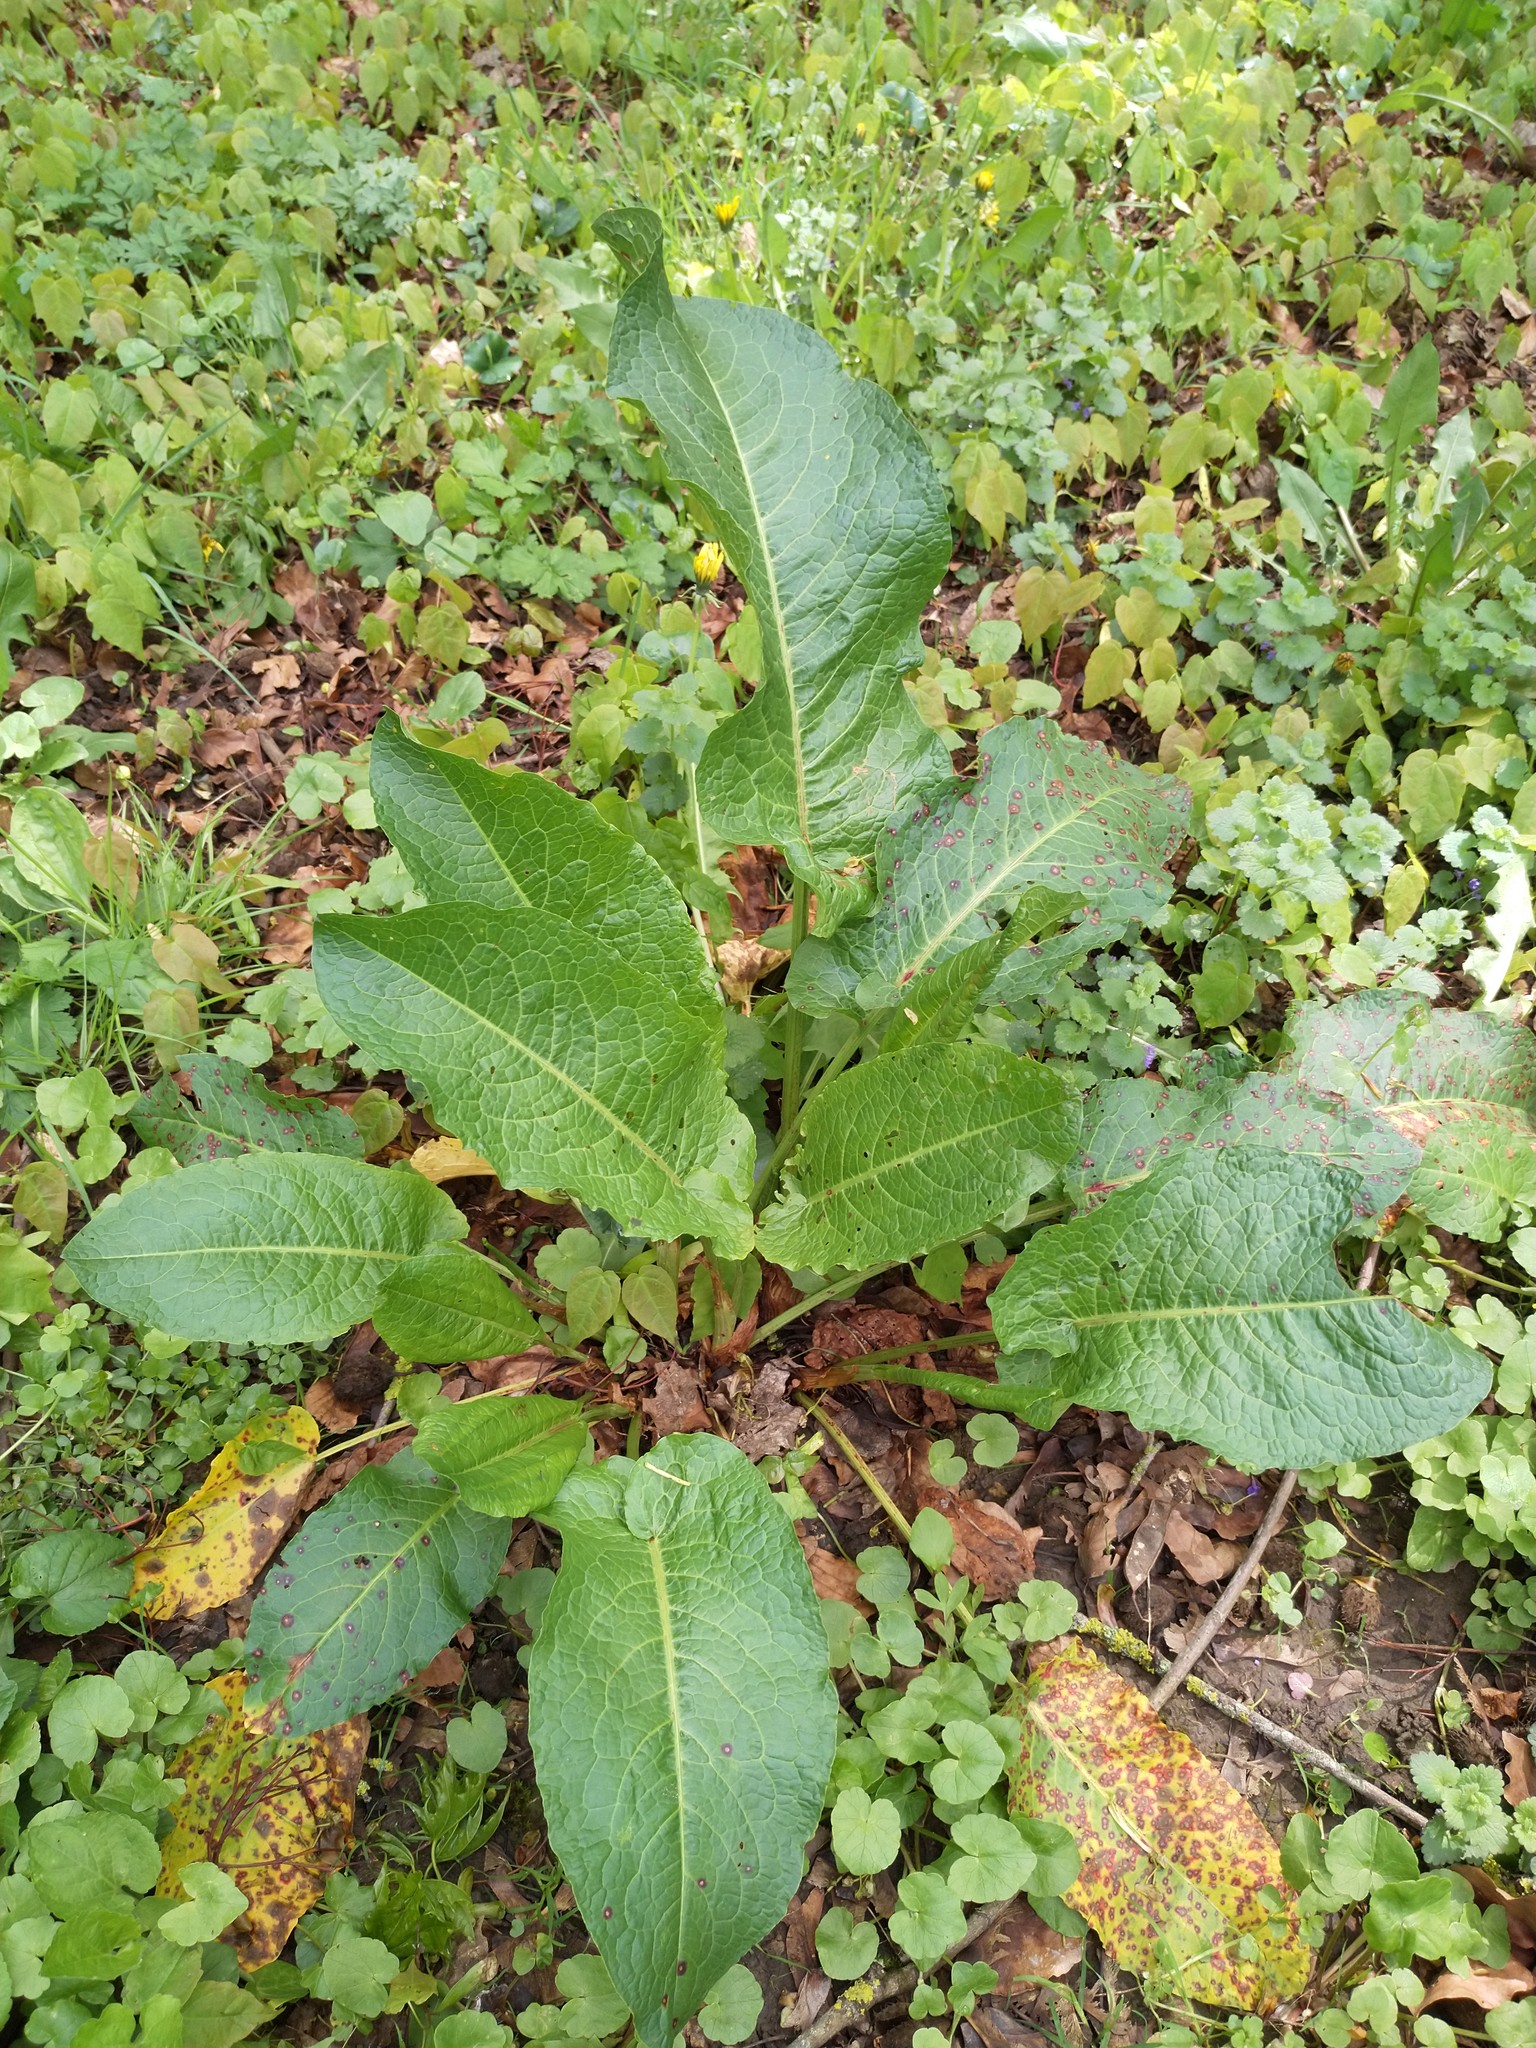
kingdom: Plantae
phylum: Tracheophyta
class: Magnoliopsida
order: Caryophyllales
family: Polygonaceae
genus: Rumex
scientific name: Rumex obtusifolius
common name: Bitter dock
